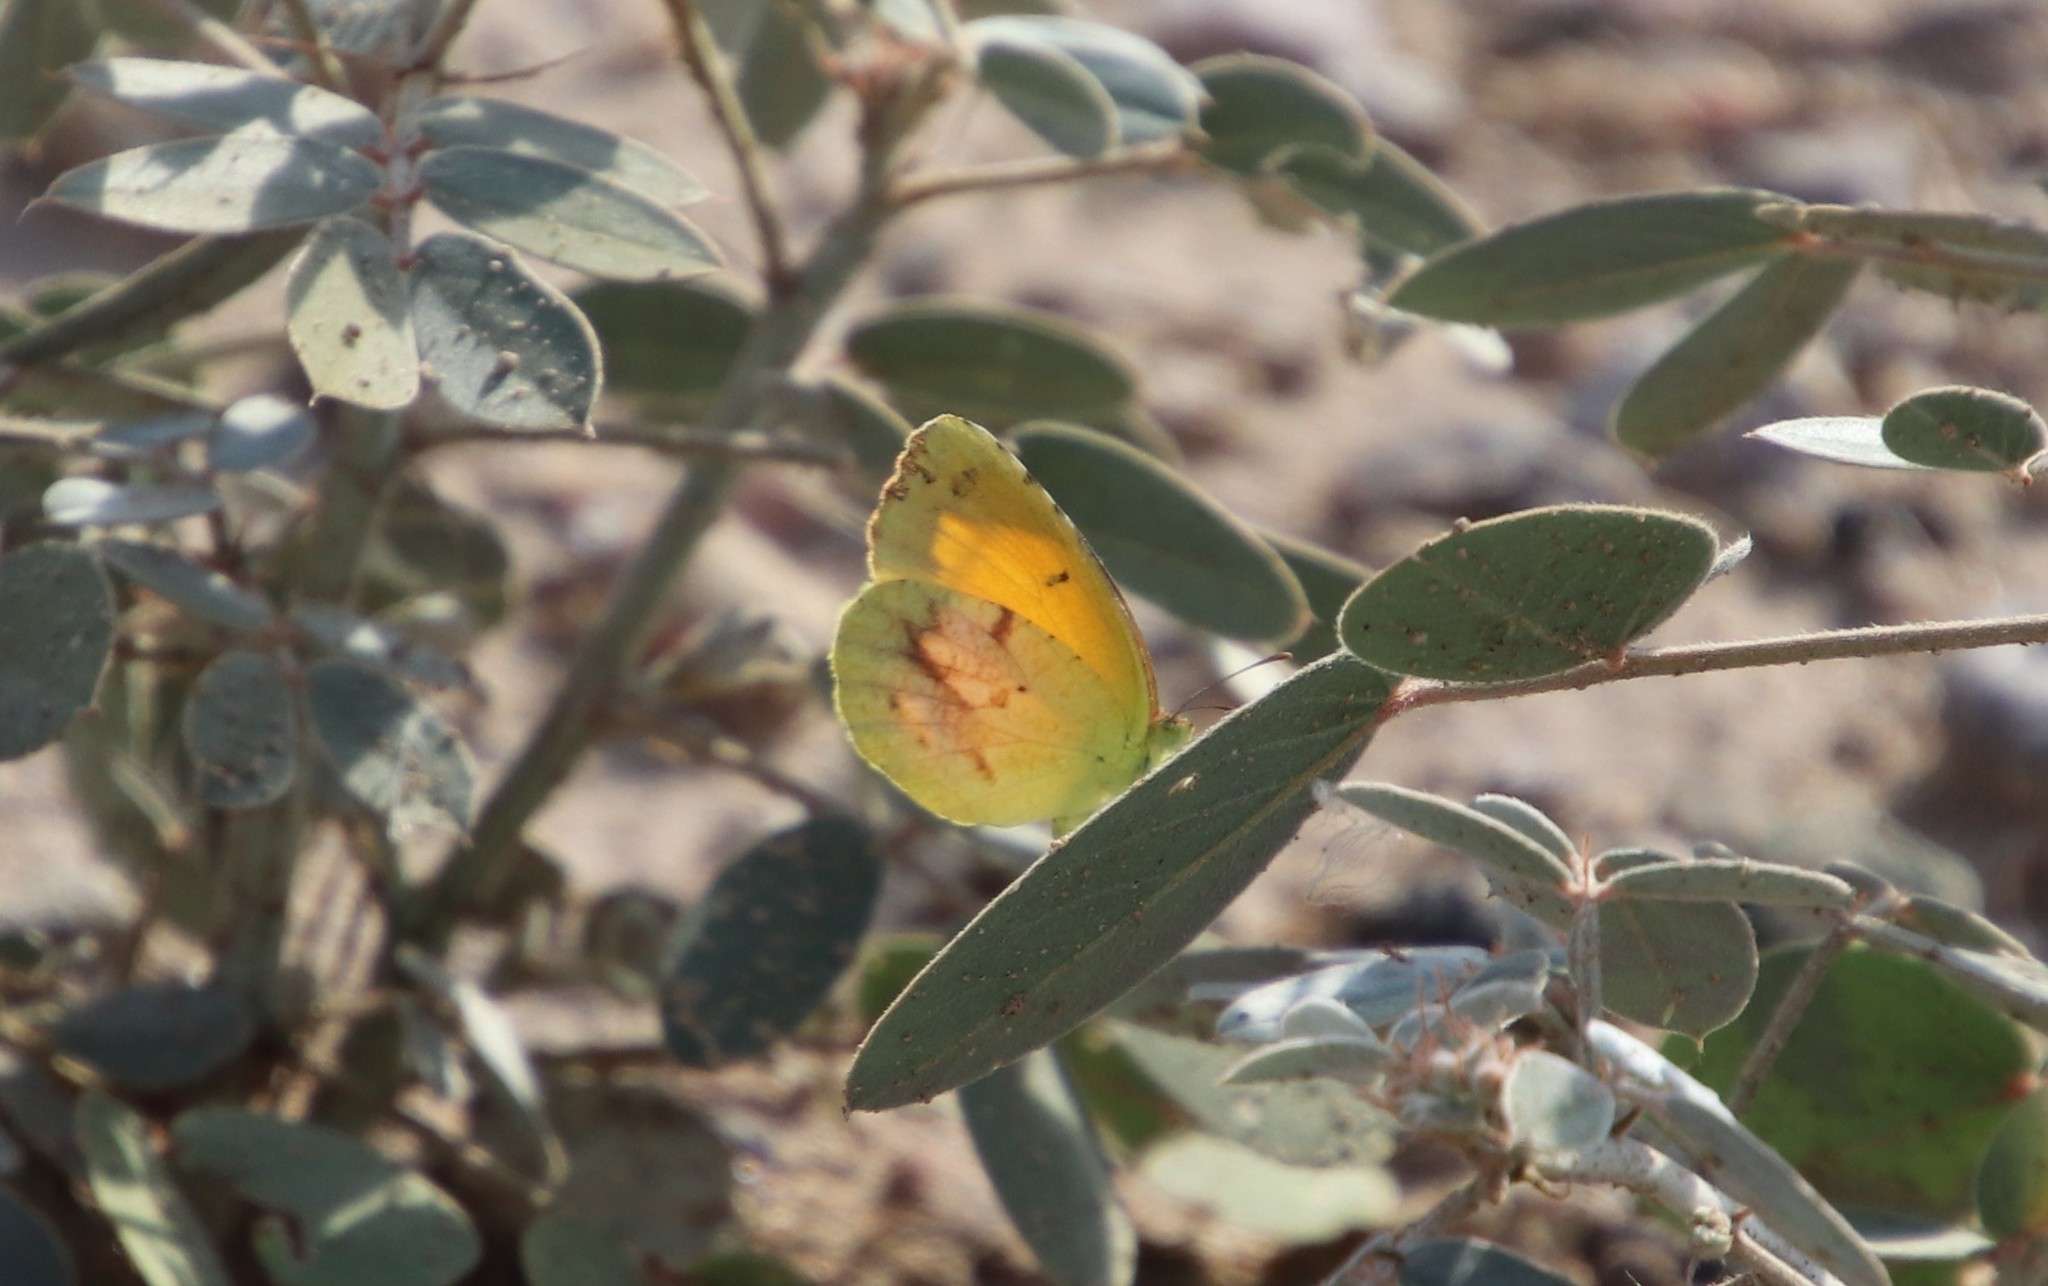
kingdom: Animalia
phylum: Arthropoda
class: Insecta
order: Lepidoptera
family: Pieridae
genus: Abaeis
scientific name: Abaeis nicippe
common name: Sleepy orange
